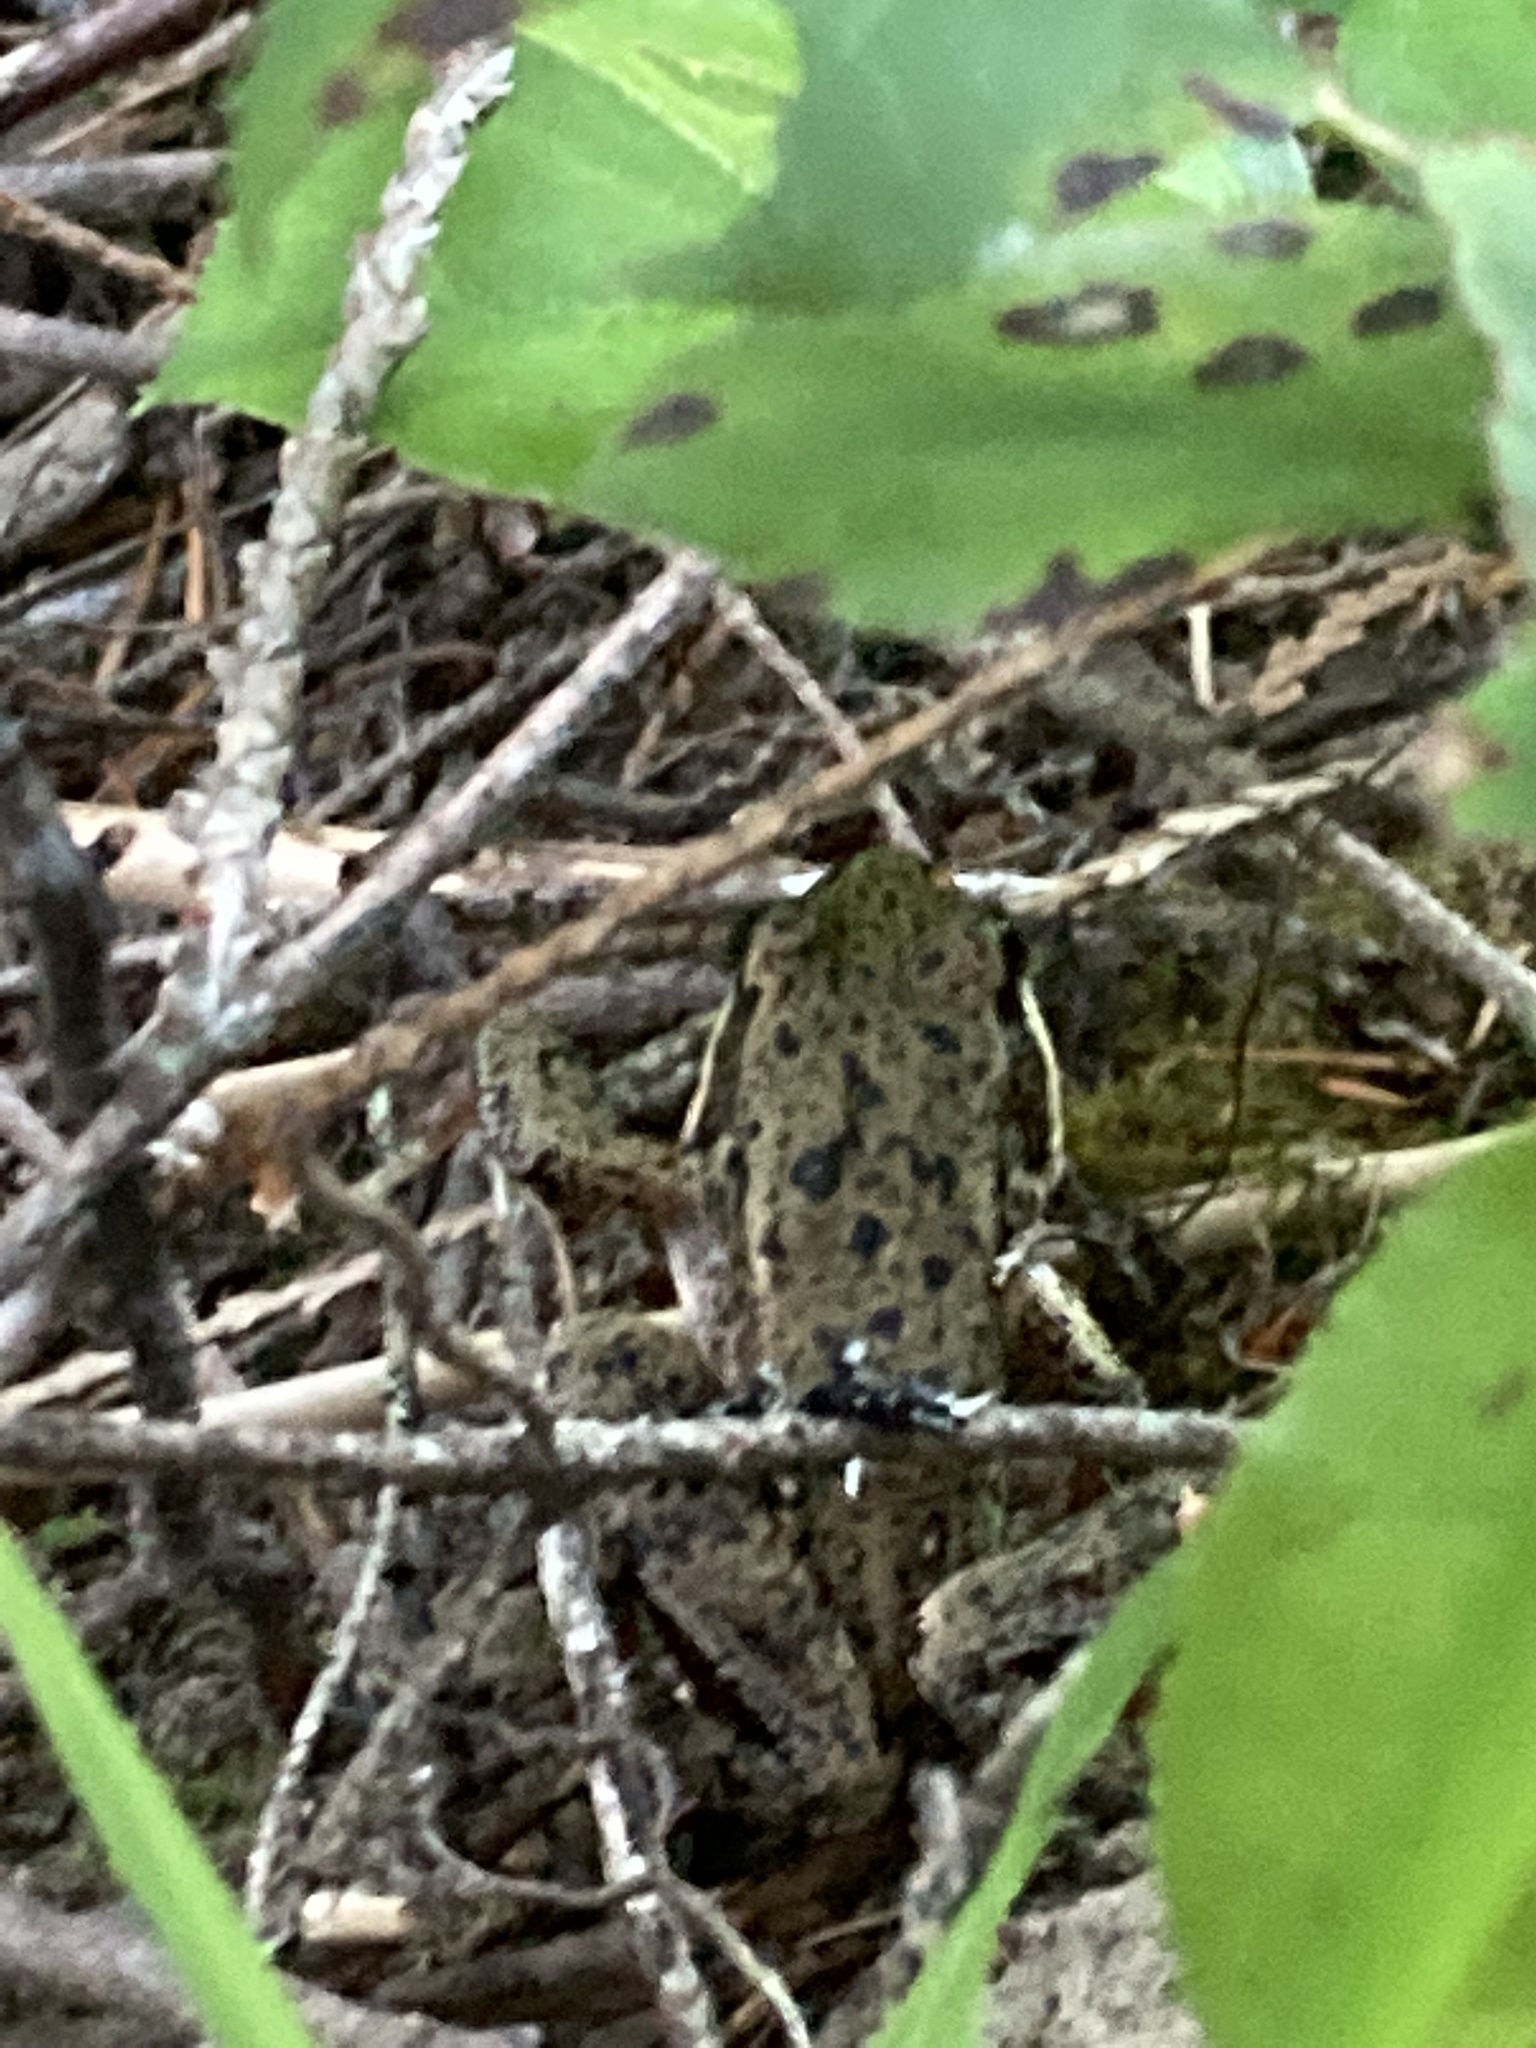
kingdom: Animalia
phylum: Chordata
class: Amphibia
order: Anura
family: Ranidae
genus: Rana
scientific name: Rana aurora
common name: Red-legged frog
